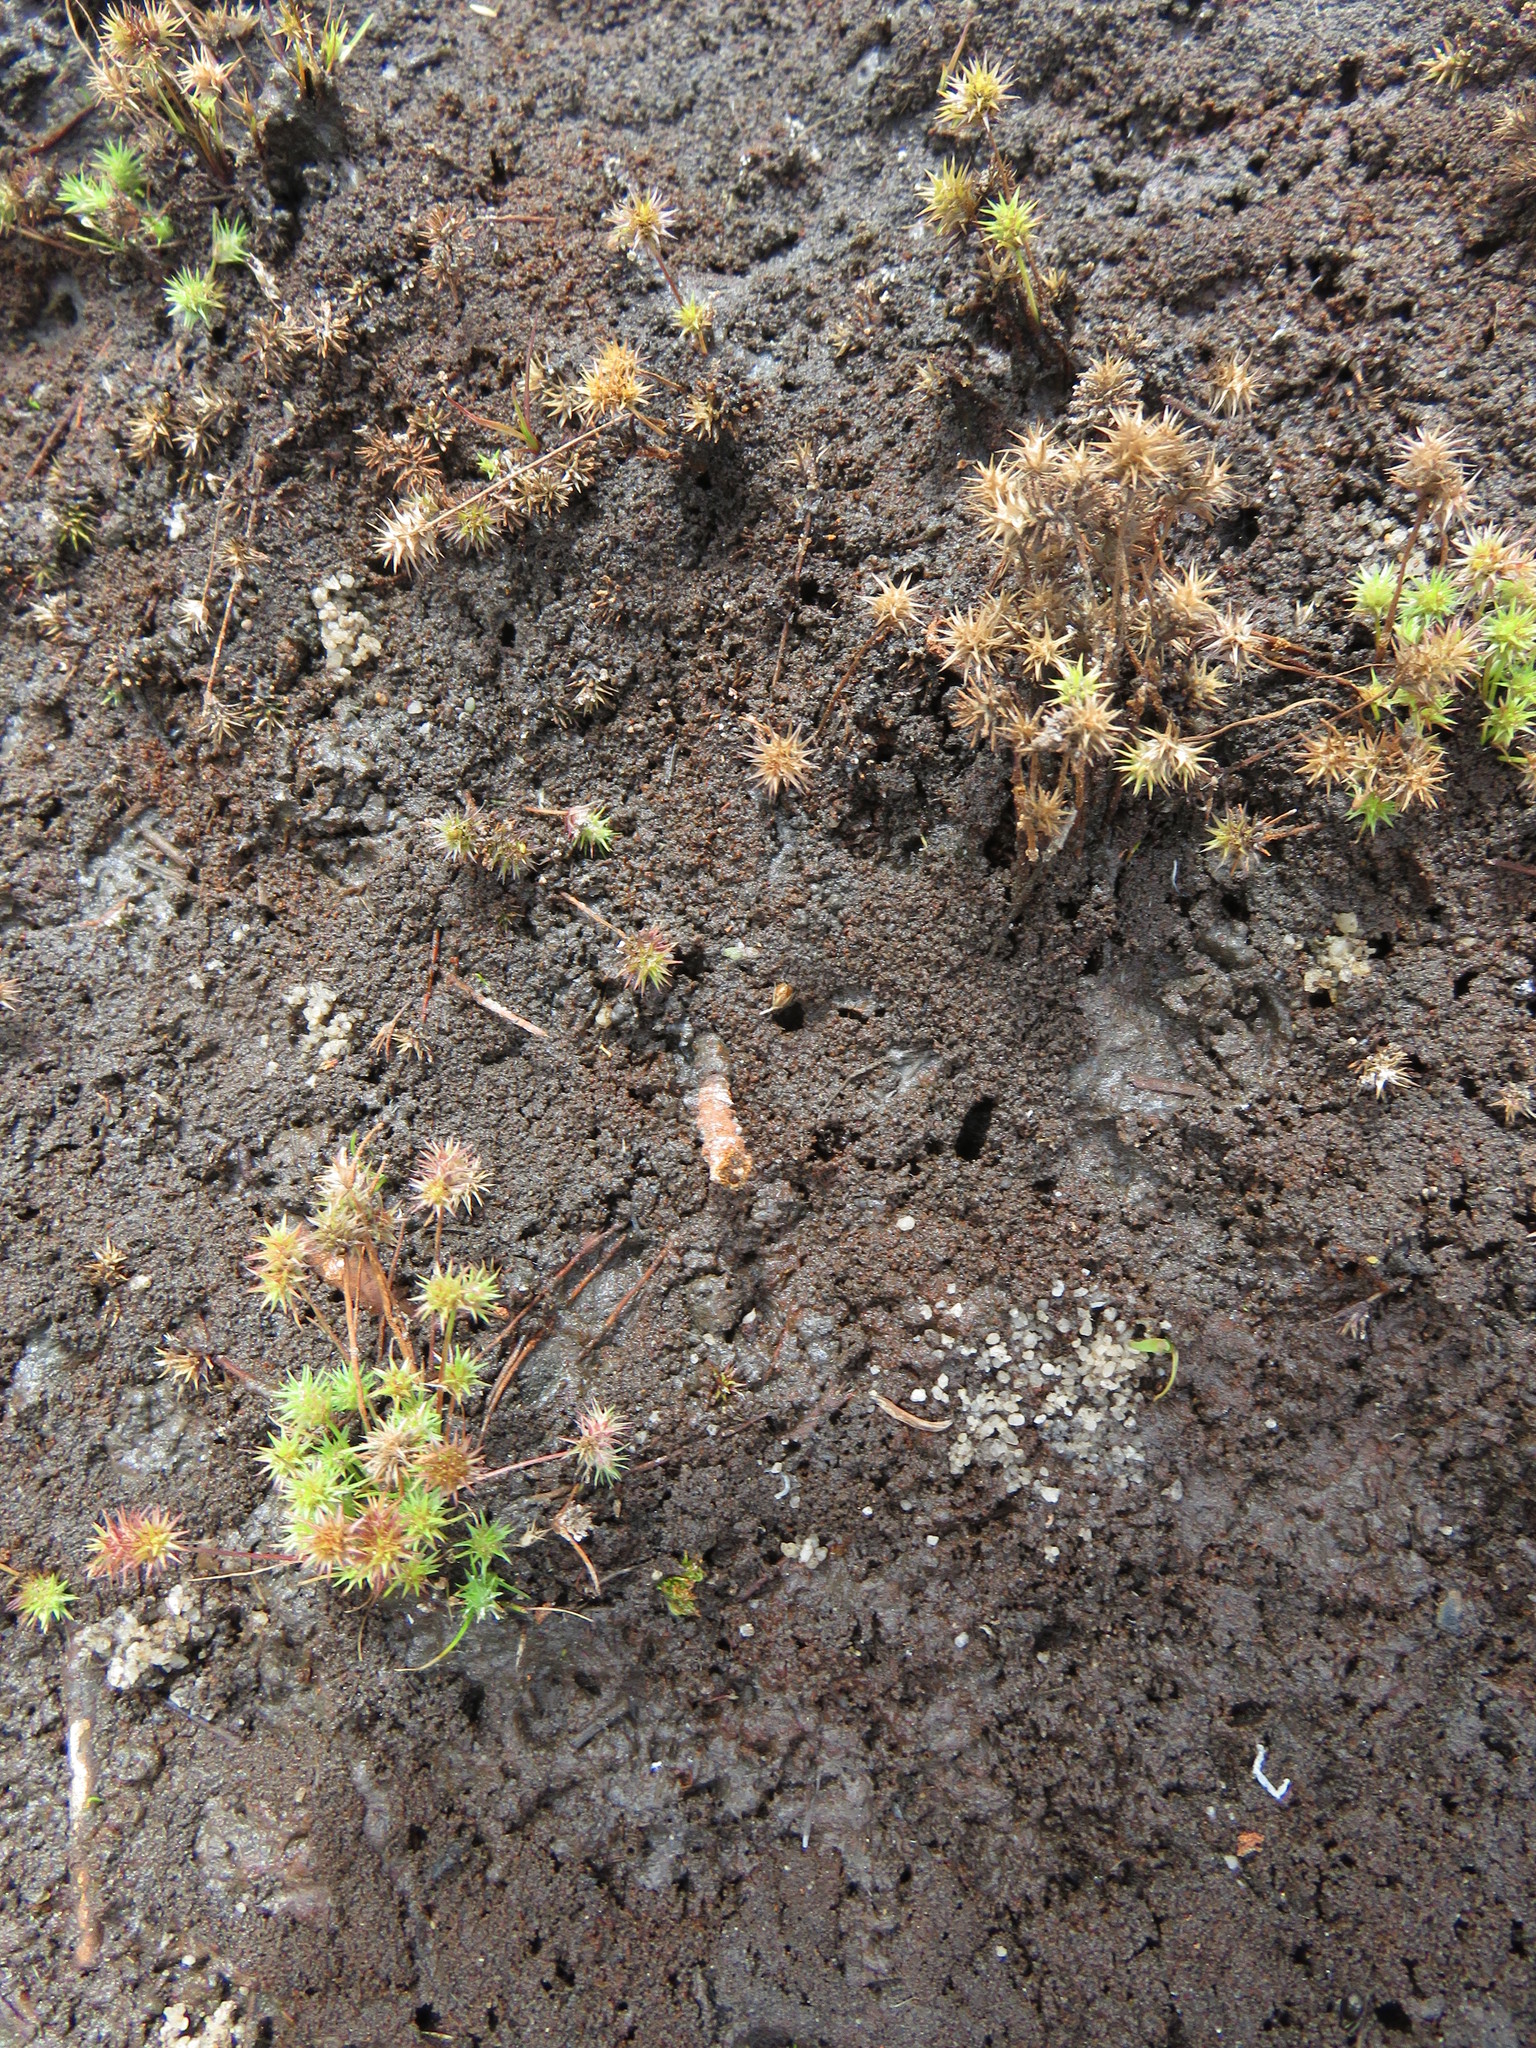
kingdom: Plantae
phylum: Tracheophyta
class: Liliopsida
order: Poales
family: Cyperaceae
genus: Isolepis
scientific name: Isolepis hystrix
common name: Bottlebrush bulrush
